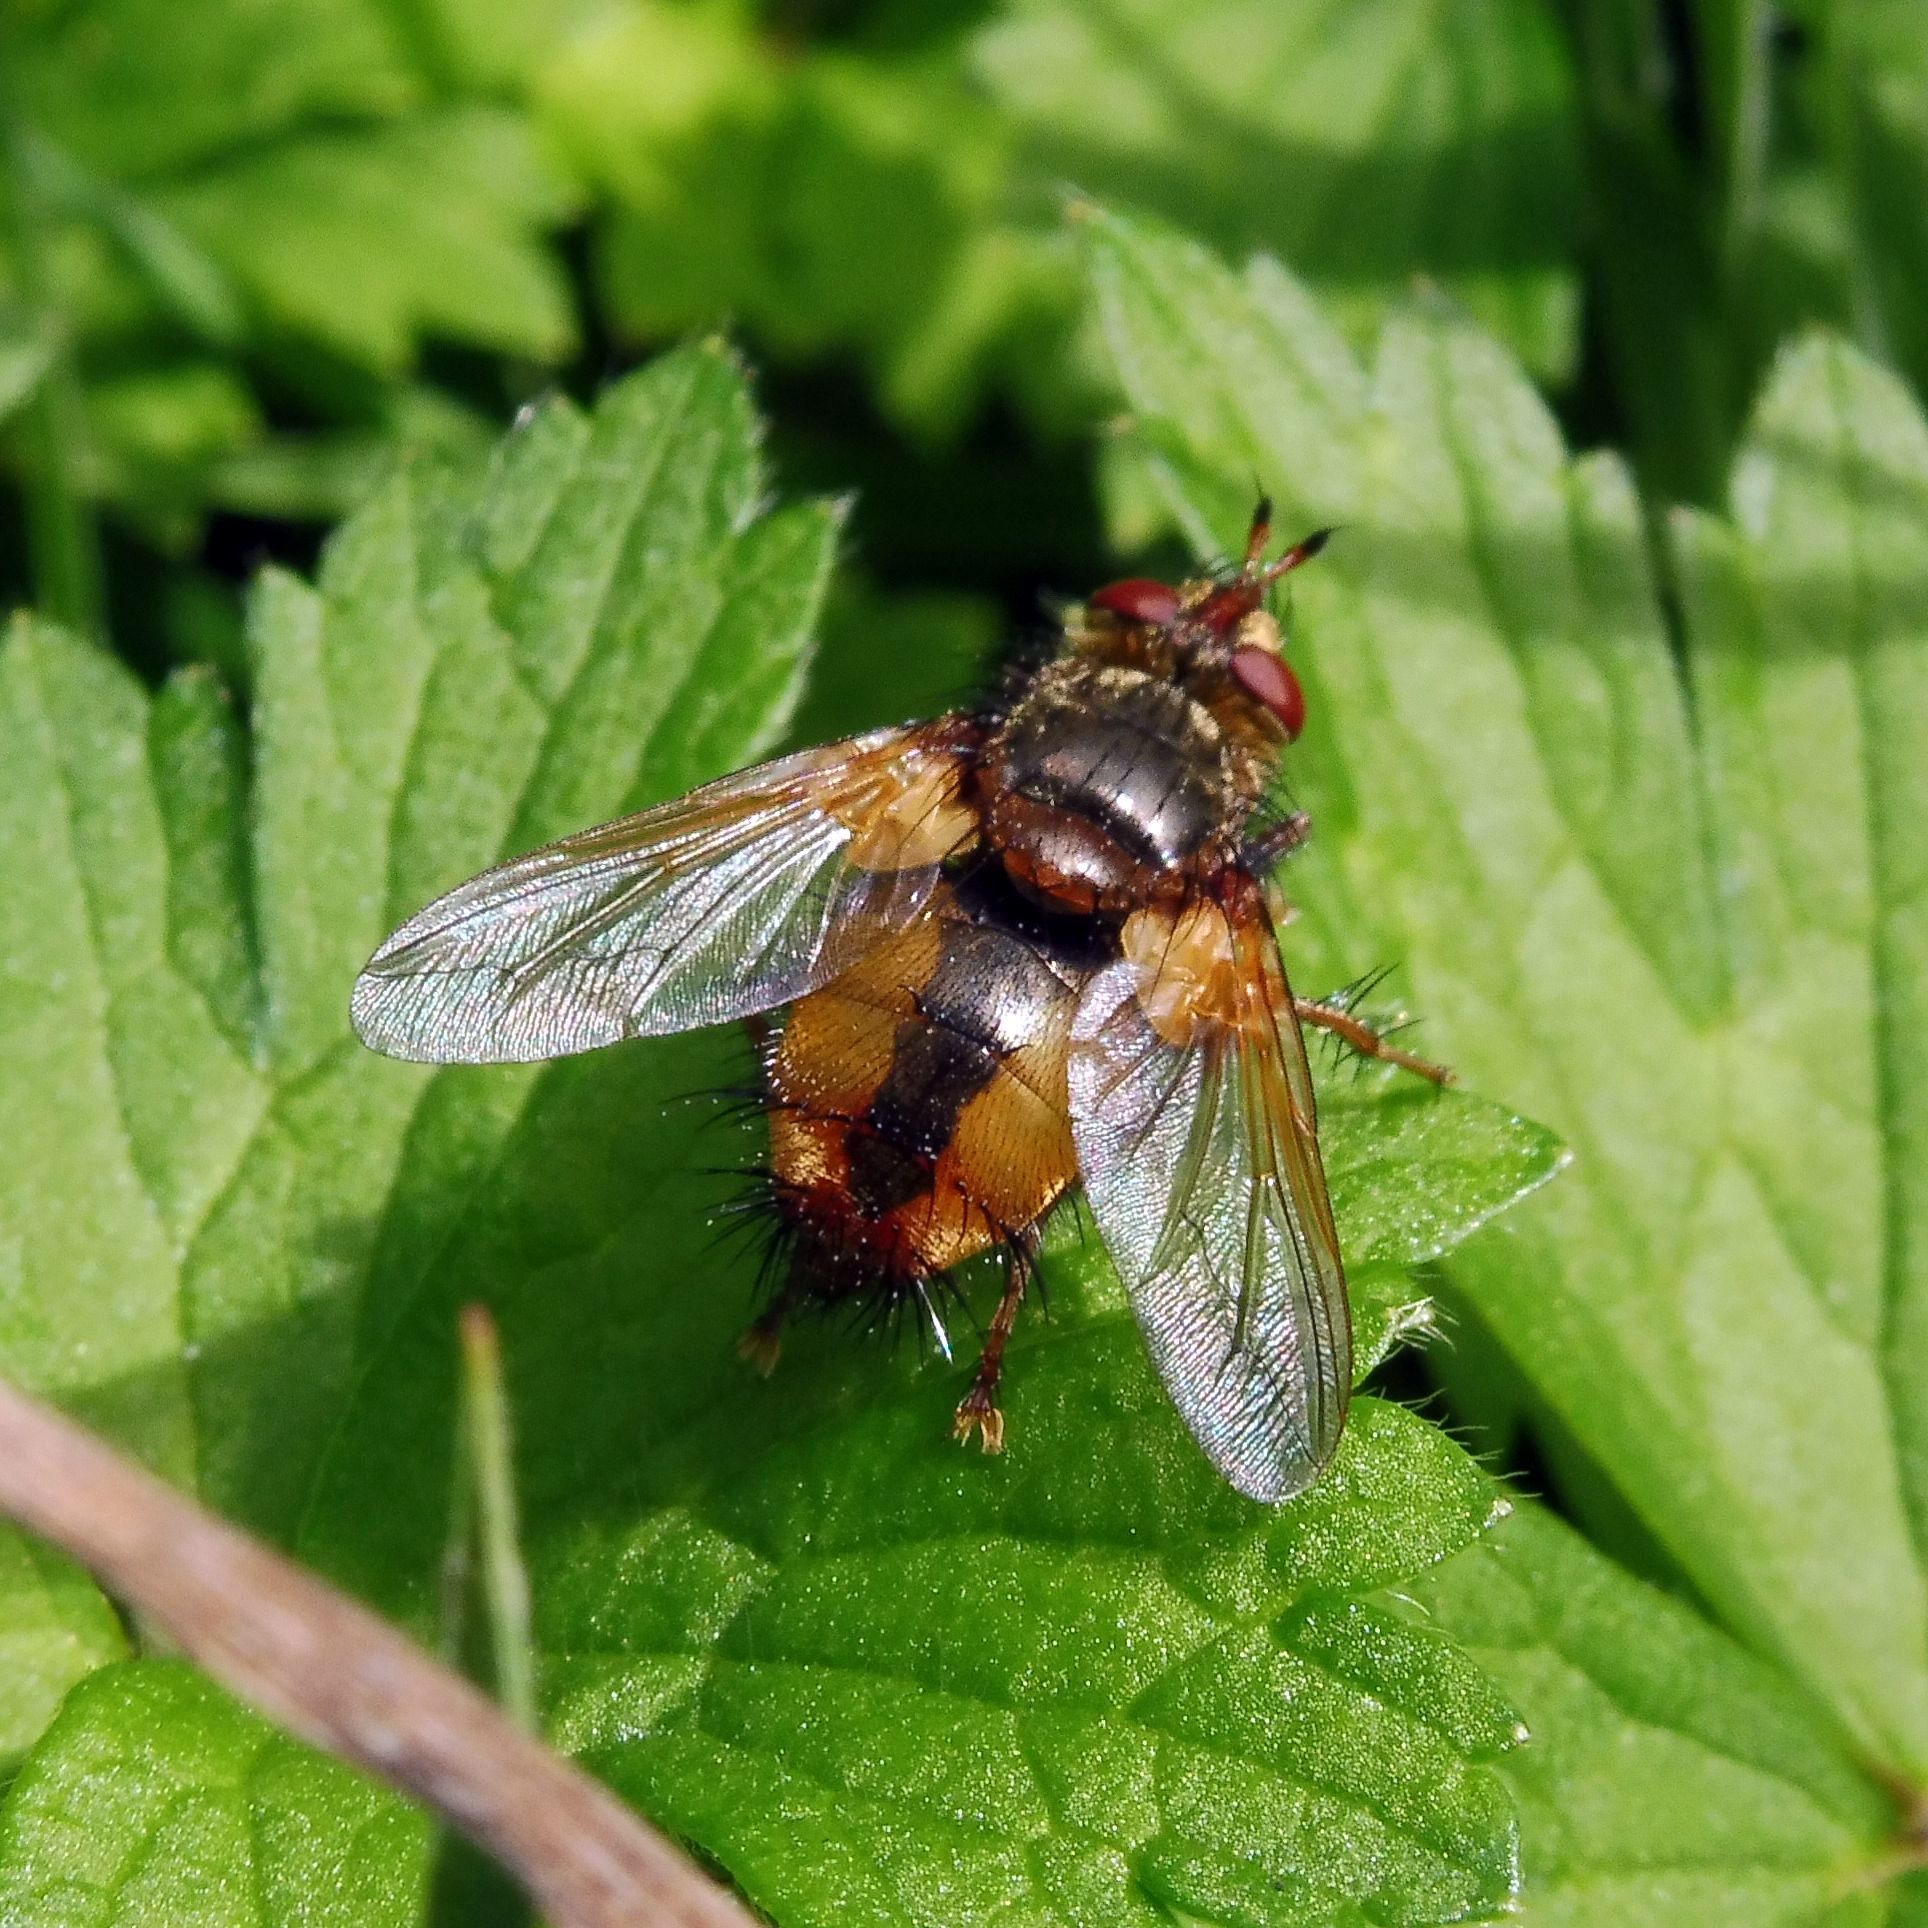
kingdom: Animalia
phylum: Arthropoda
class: Insecta
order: Diptera
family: Tachinidae
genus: Tachina
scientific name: Tachina fera
